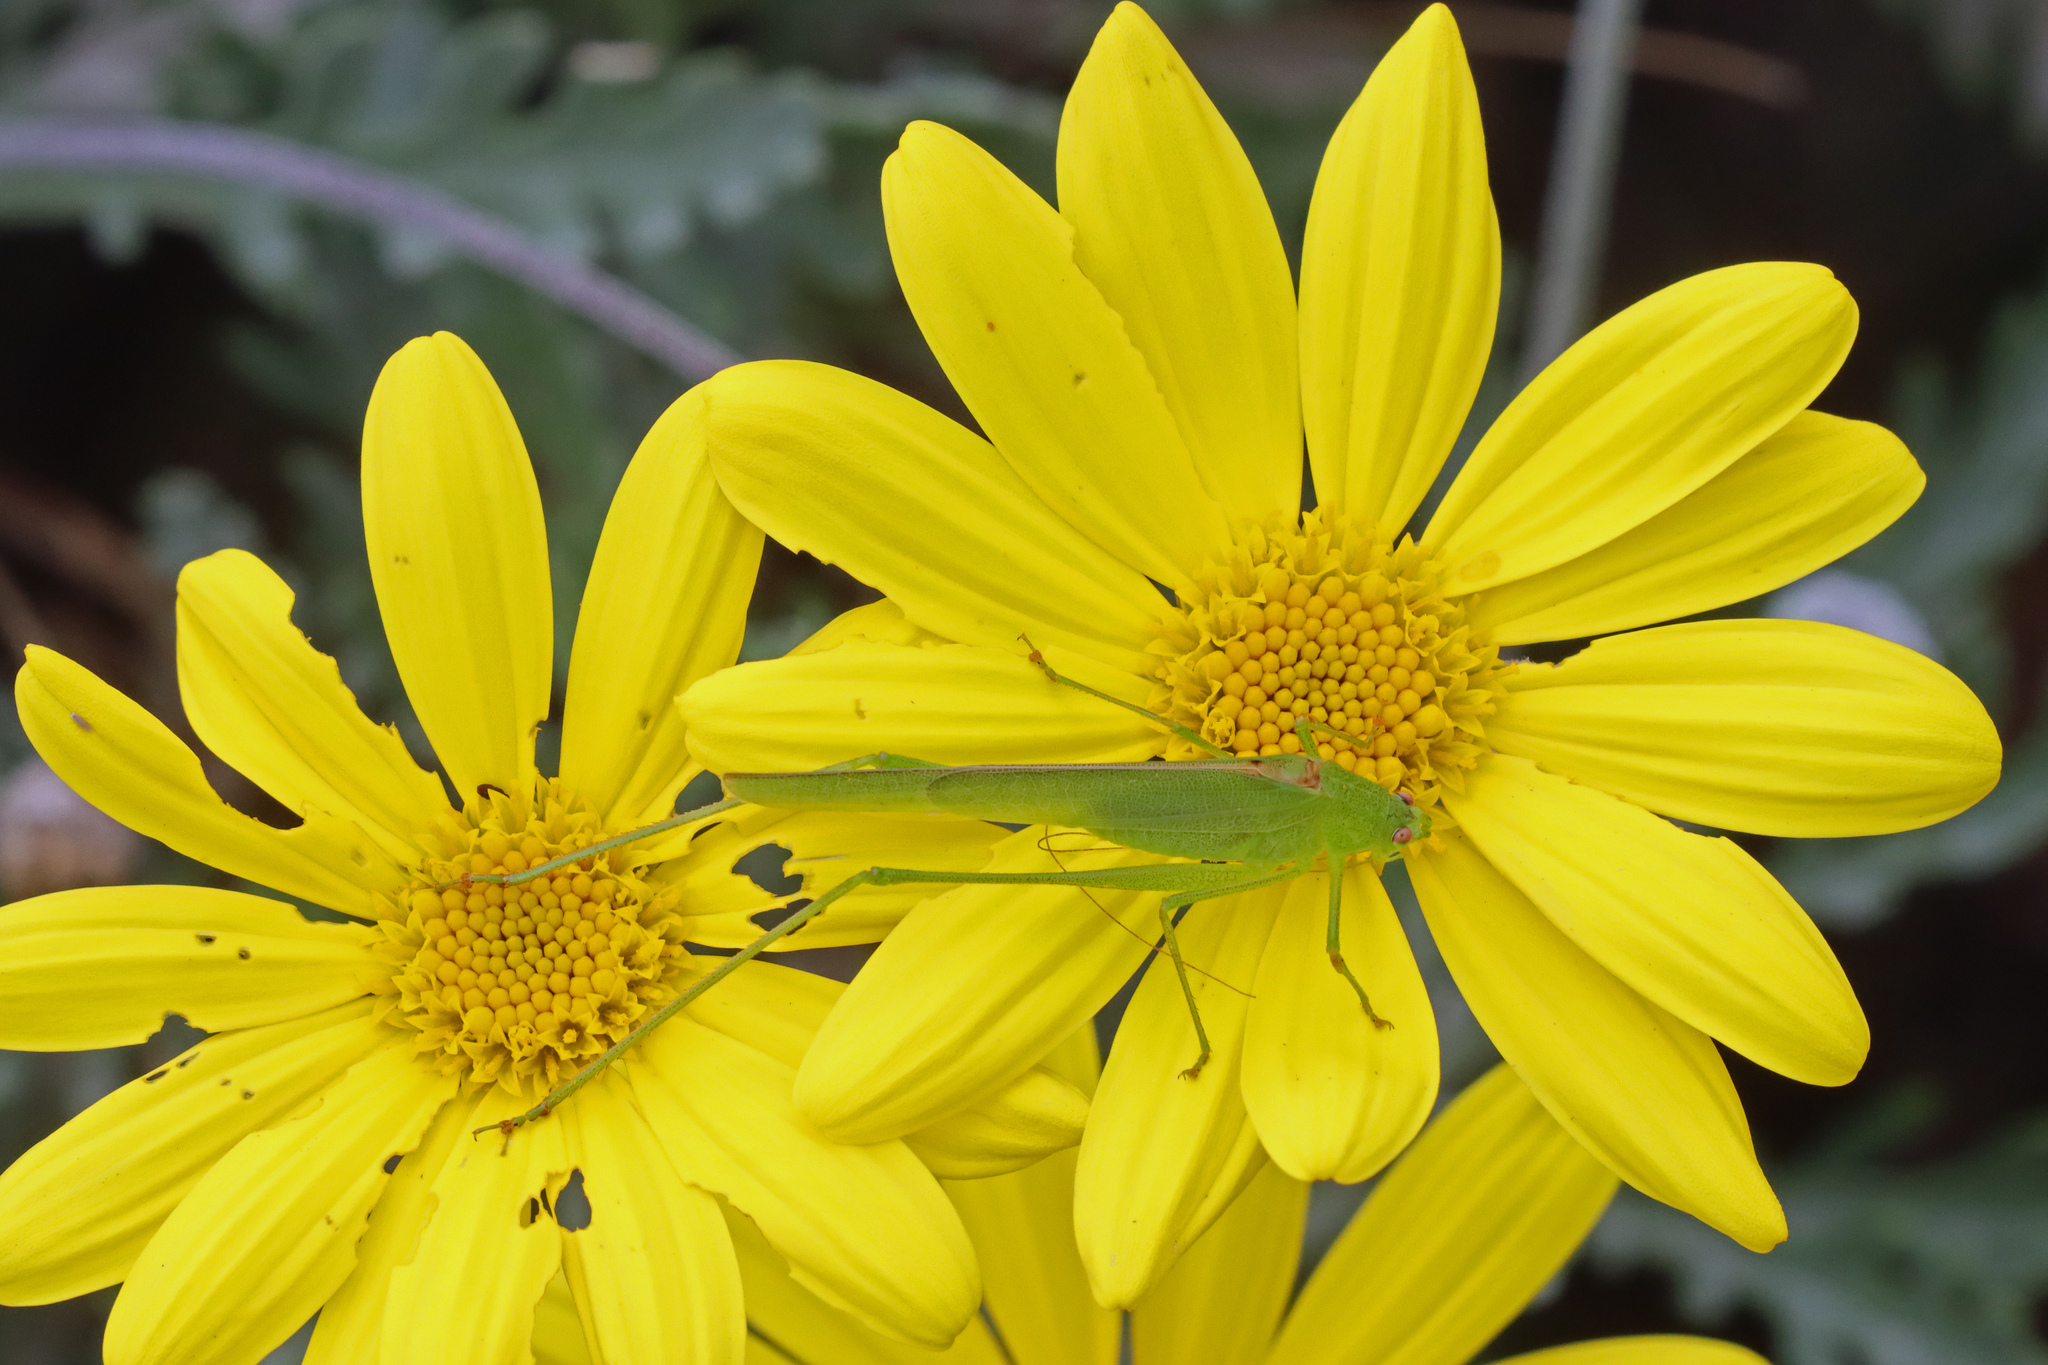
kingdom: Animalia
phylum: Arthropoda
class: Insecta
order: Orthoptera
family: Tettigoniidae
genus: Phaneroptera
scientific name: Phaneroptera sparsa
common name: Sickle-bearing leaf katydid
